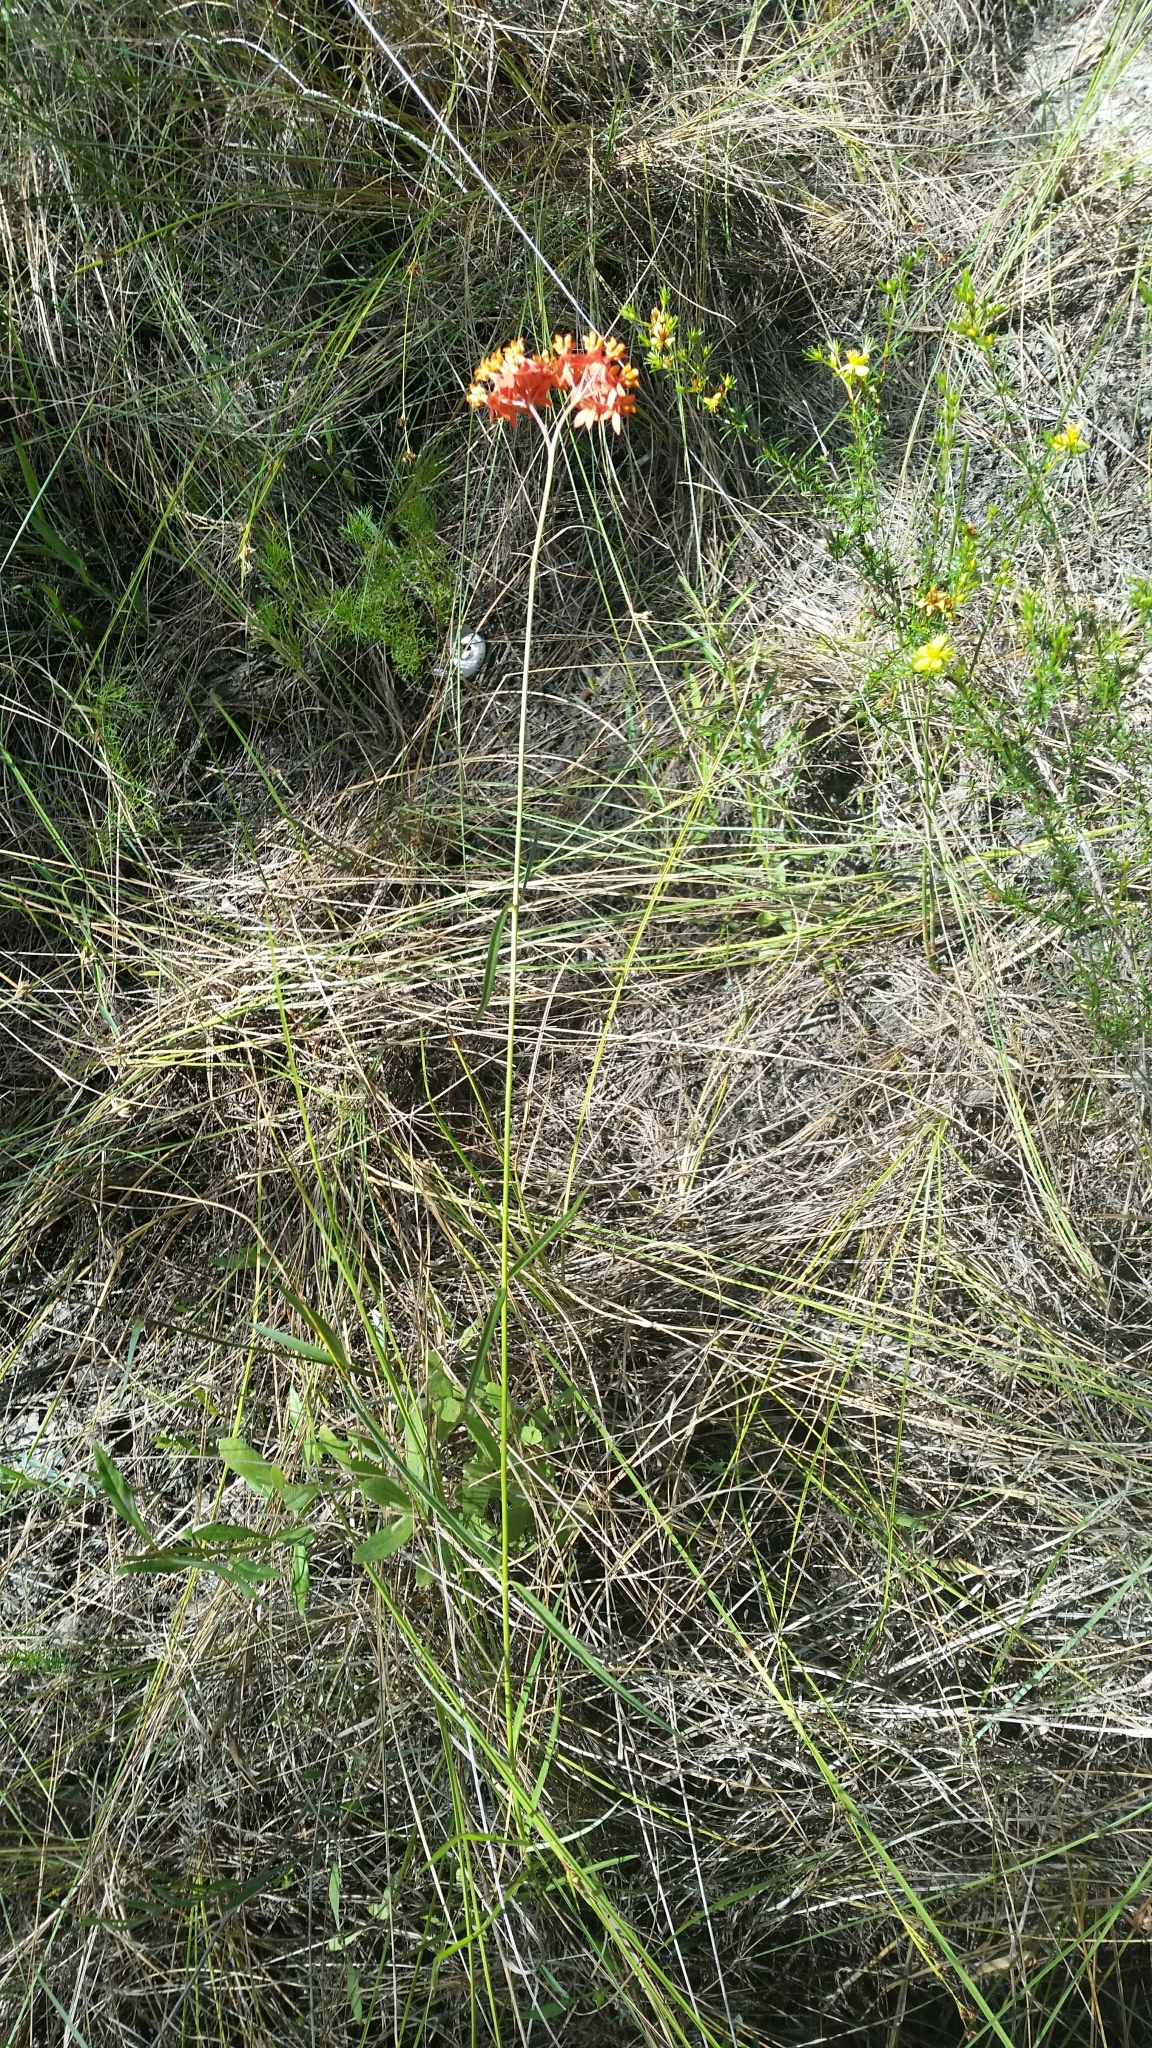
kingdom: Plantae
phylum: Tracheophyta
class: Magnoliopsida
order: Gentianales
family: Apocynaceae
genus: Asclepias
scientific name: Asclepias lanceolata
